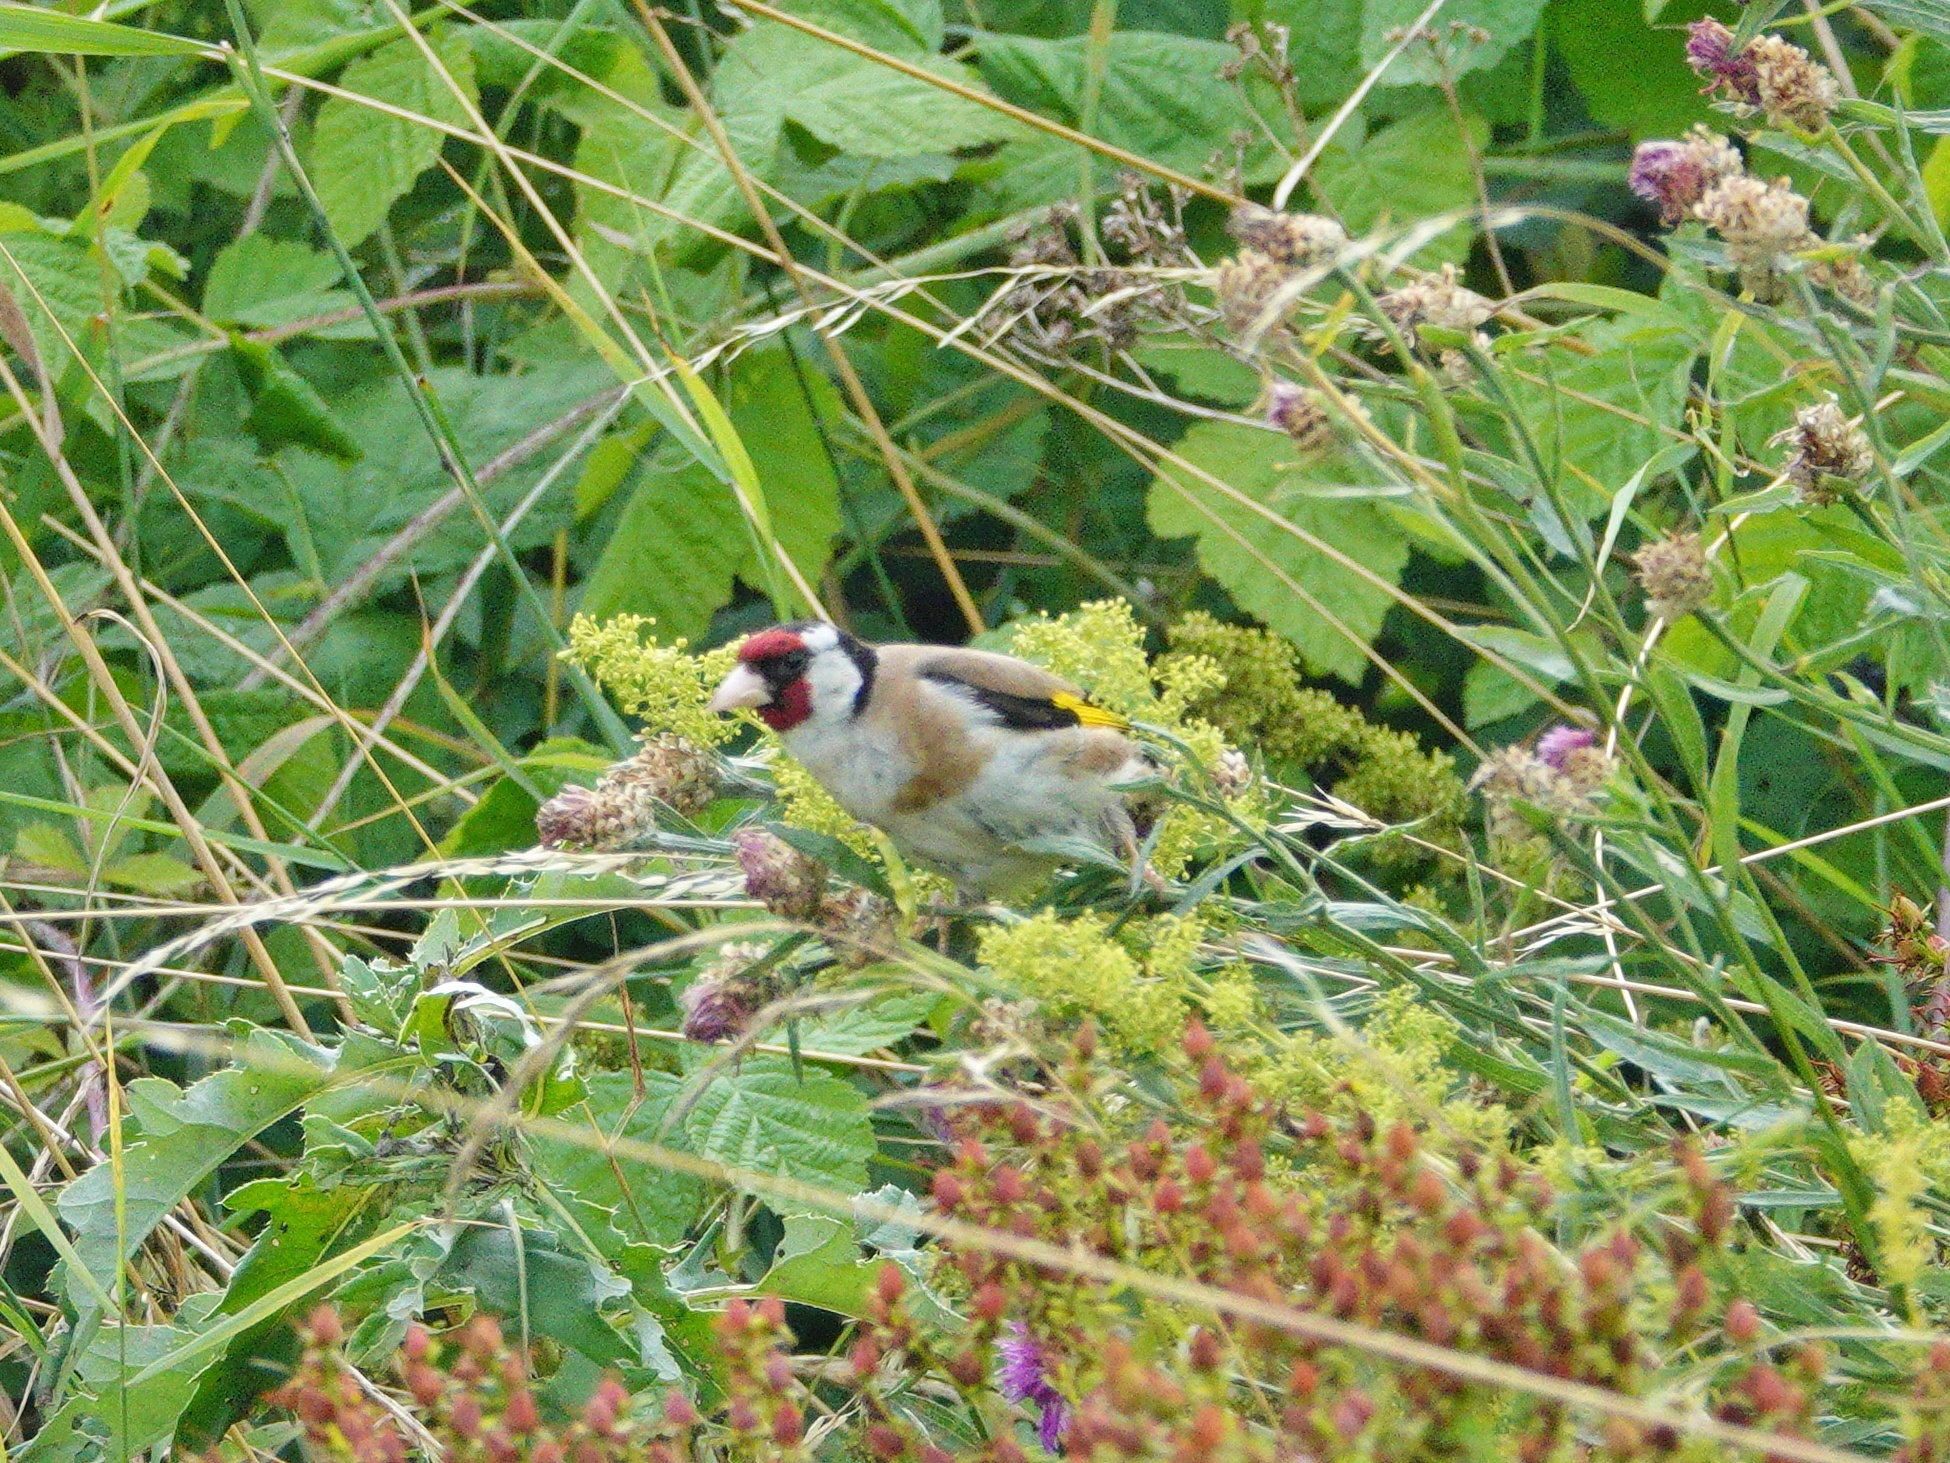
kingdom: Animalia
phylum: Chordata
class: Aves
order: Passeriformes
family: Fringillidae
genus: Carduelis
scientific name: Carduelis carduelis
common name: European goldfinch
